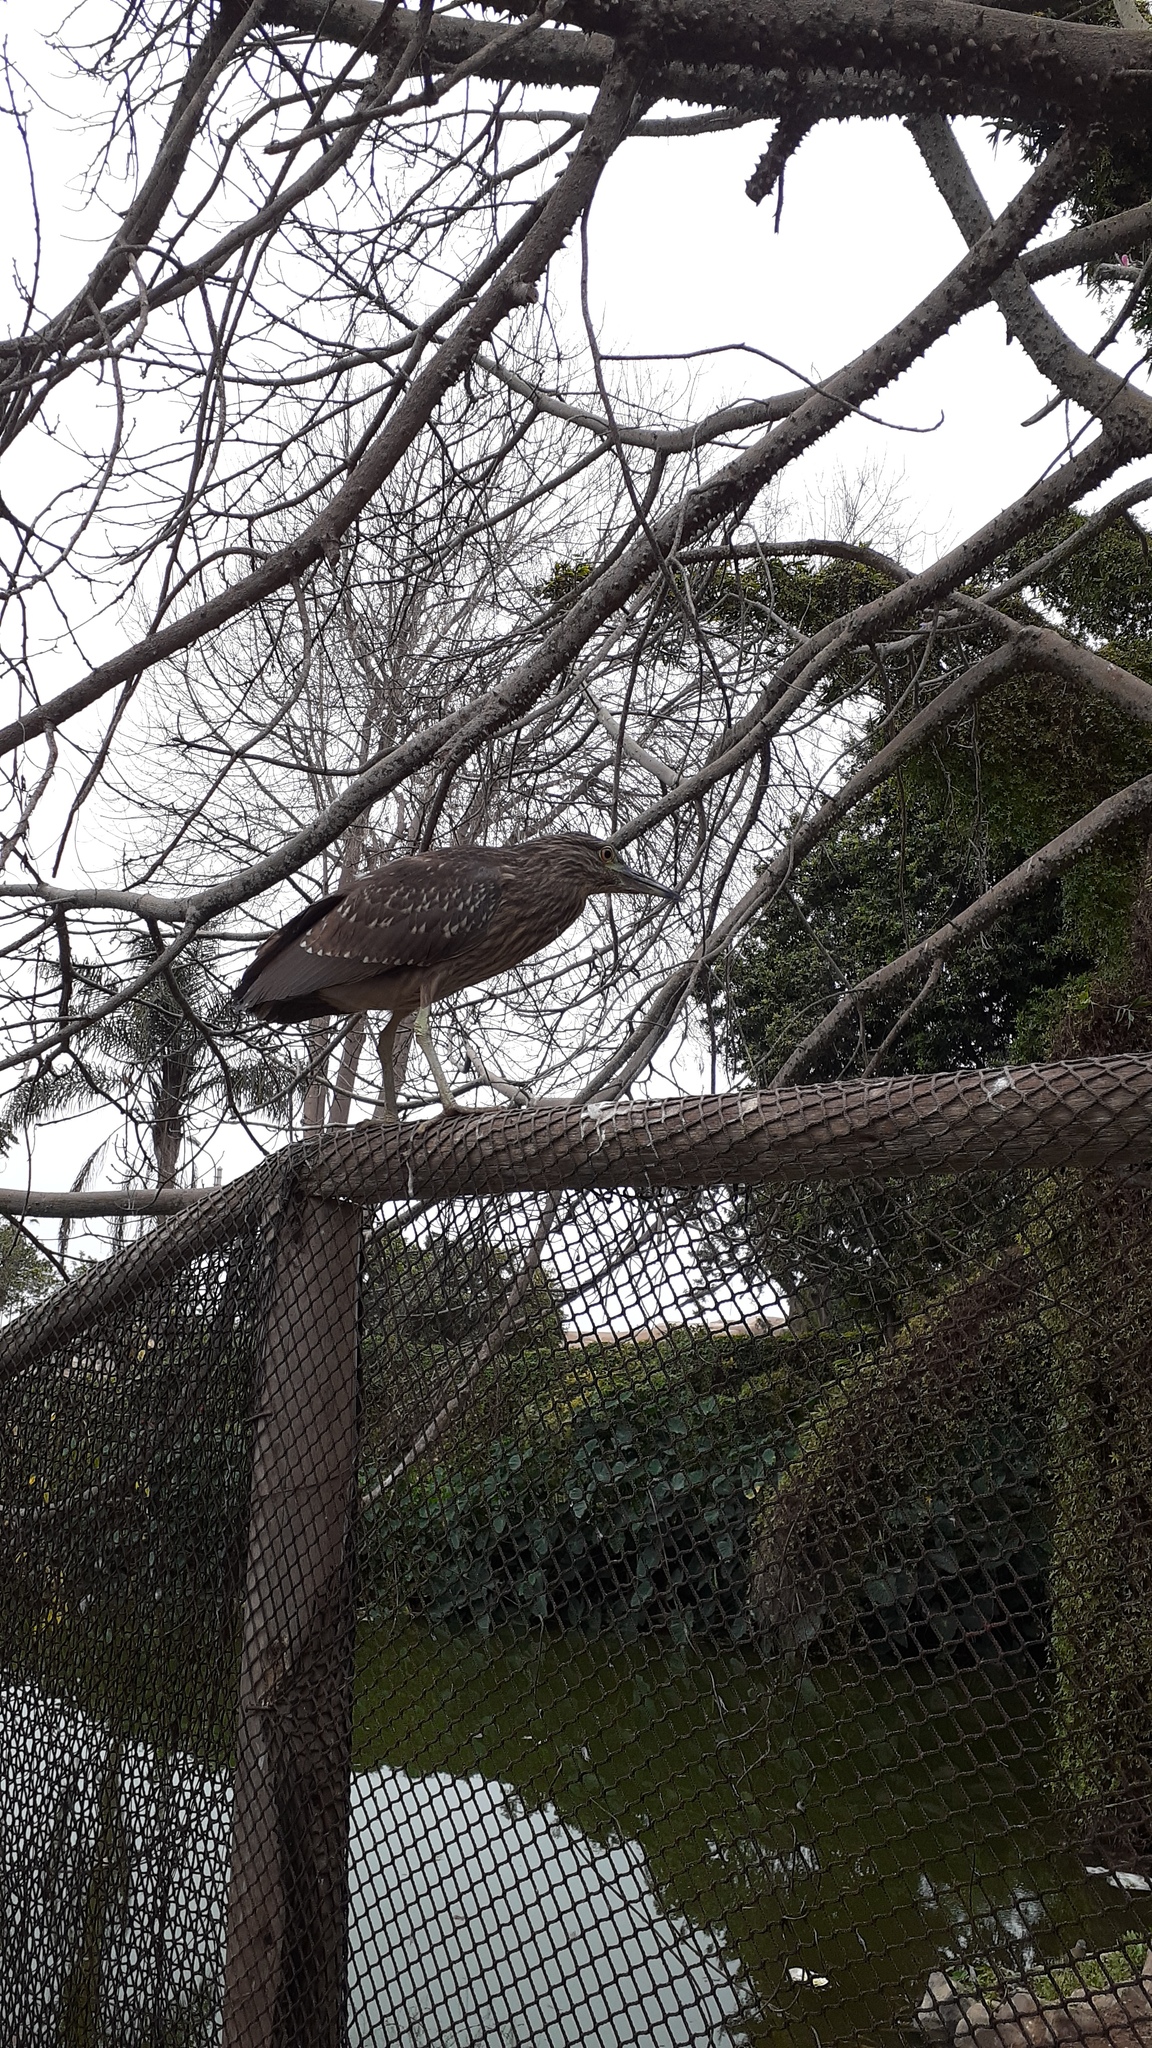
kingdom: Animalia
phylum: Chordata
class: Aves
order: Pelecaniformes
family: Ardeidae
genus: Nycticorax
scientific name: Nycticorax nycticorax
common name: Black-crowned night heron
